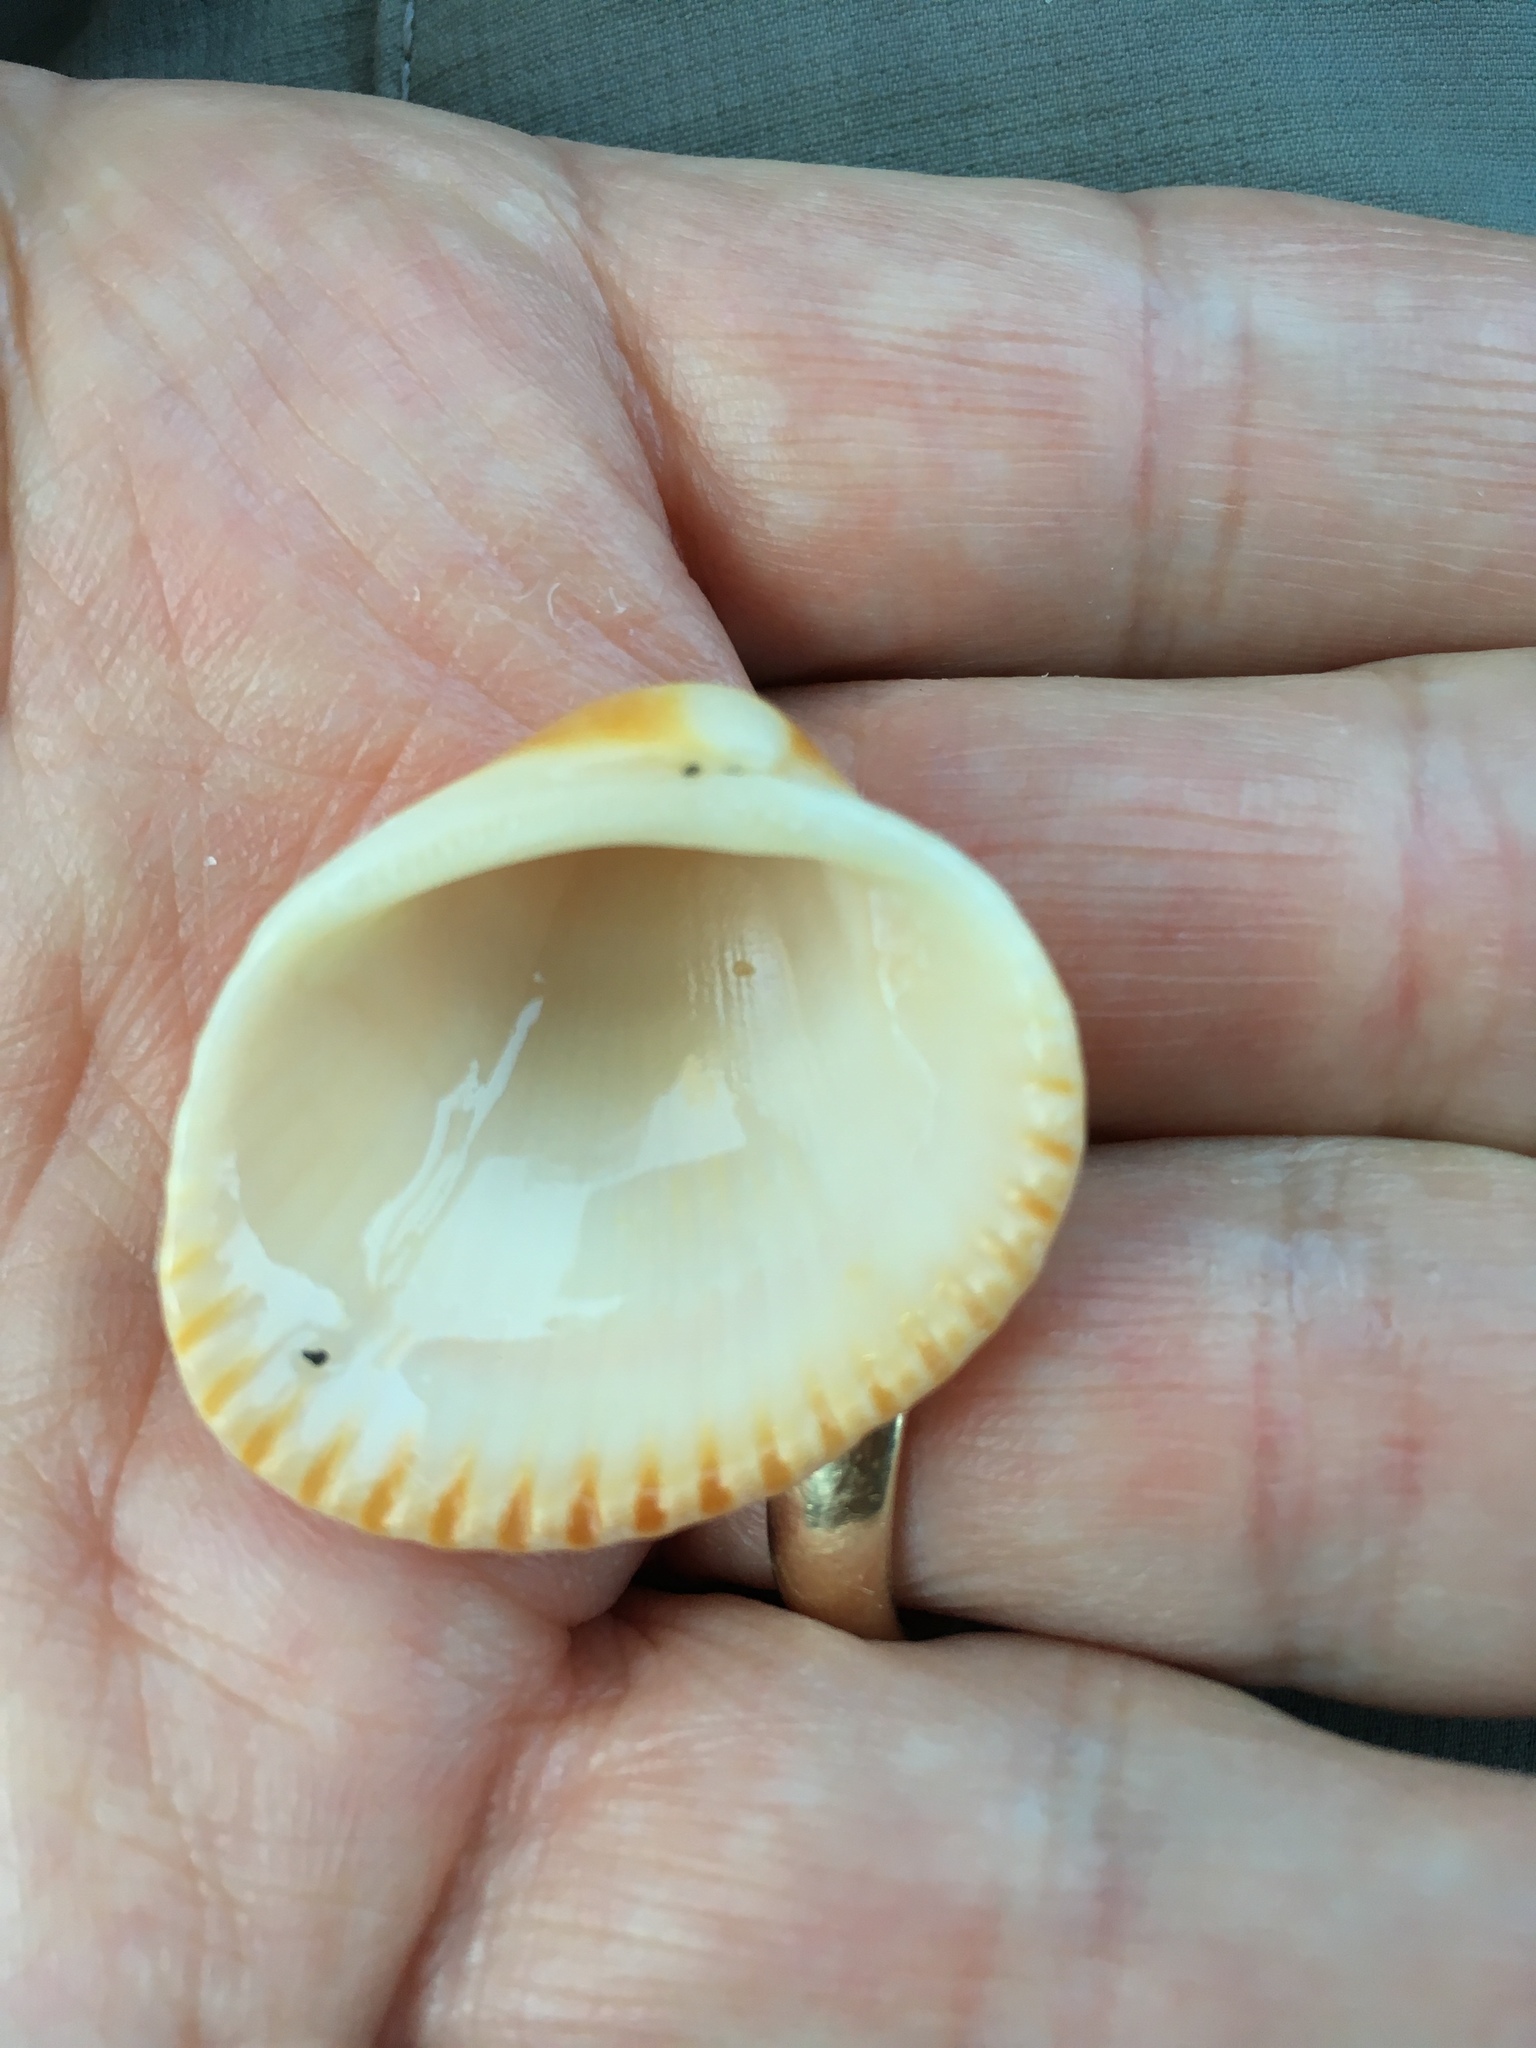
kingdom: Animalia
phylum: Mollusca
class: Bivalvia
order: Arcida
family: Arcidae
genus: Lunarca
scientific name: Lunarca ovalis
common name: Blood ark
